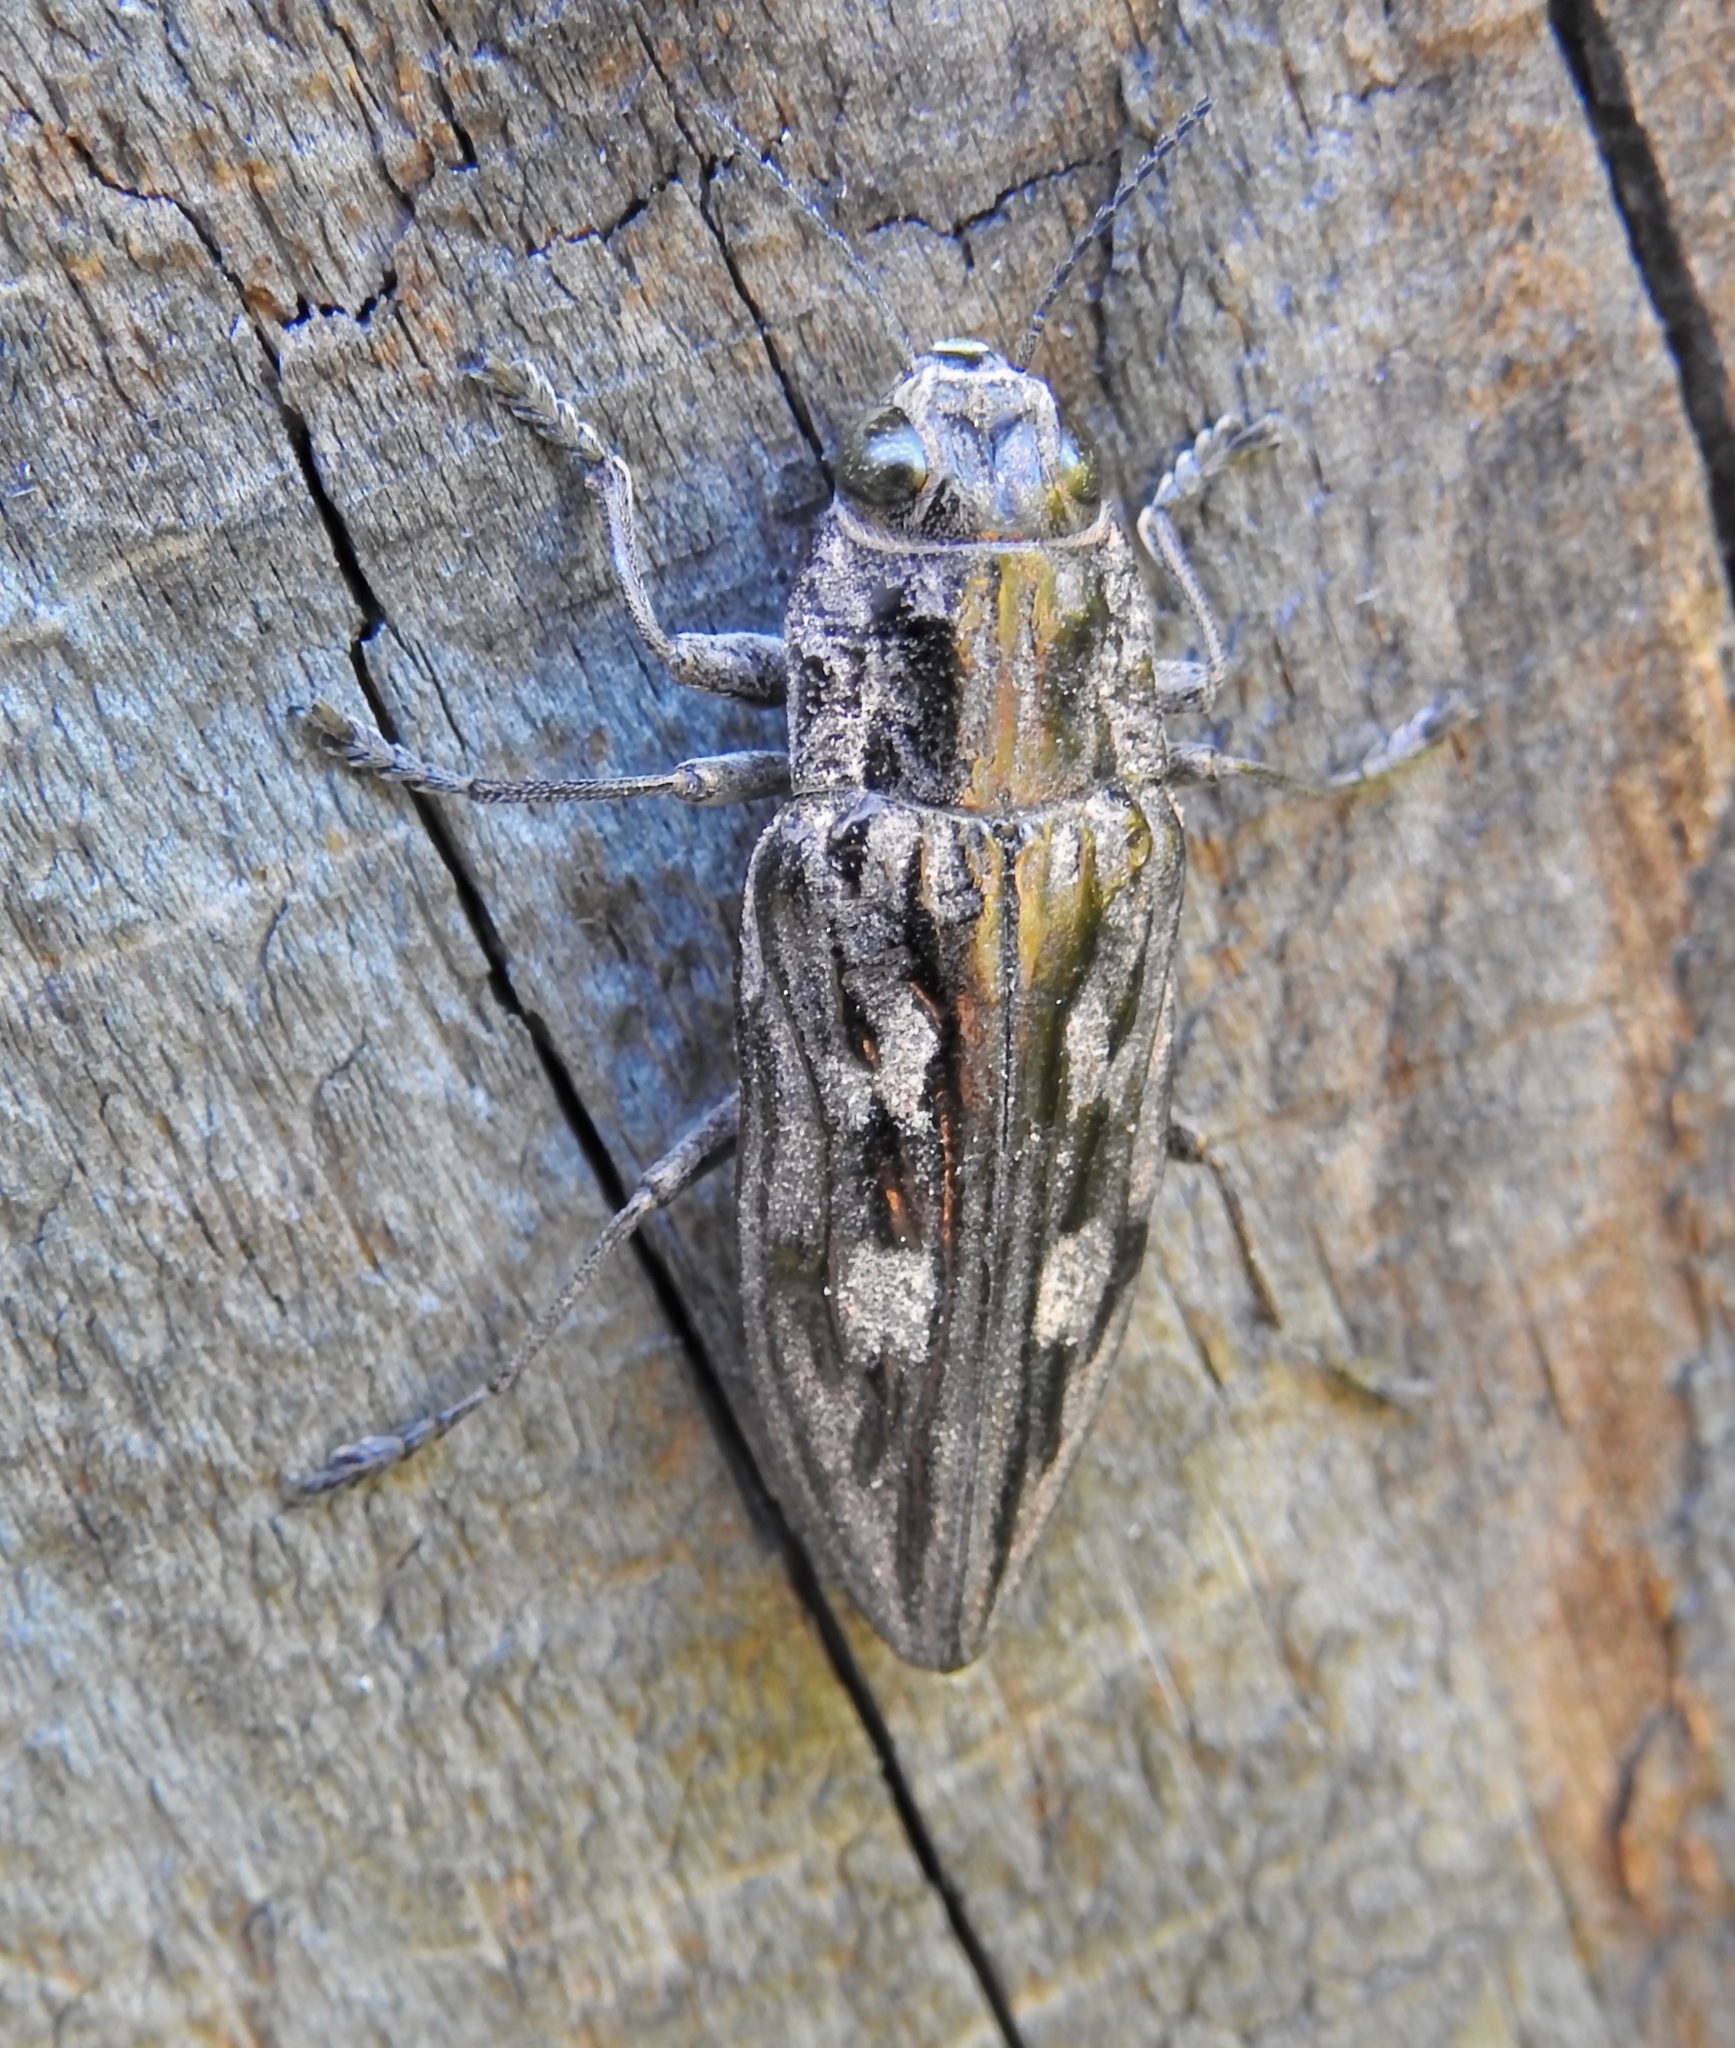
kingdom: Animalia
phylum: Arthropoda
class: Insecta
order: Coleoptera
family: Buprestidae
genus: Chalcophora
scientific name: Chalcophora virginiensis
